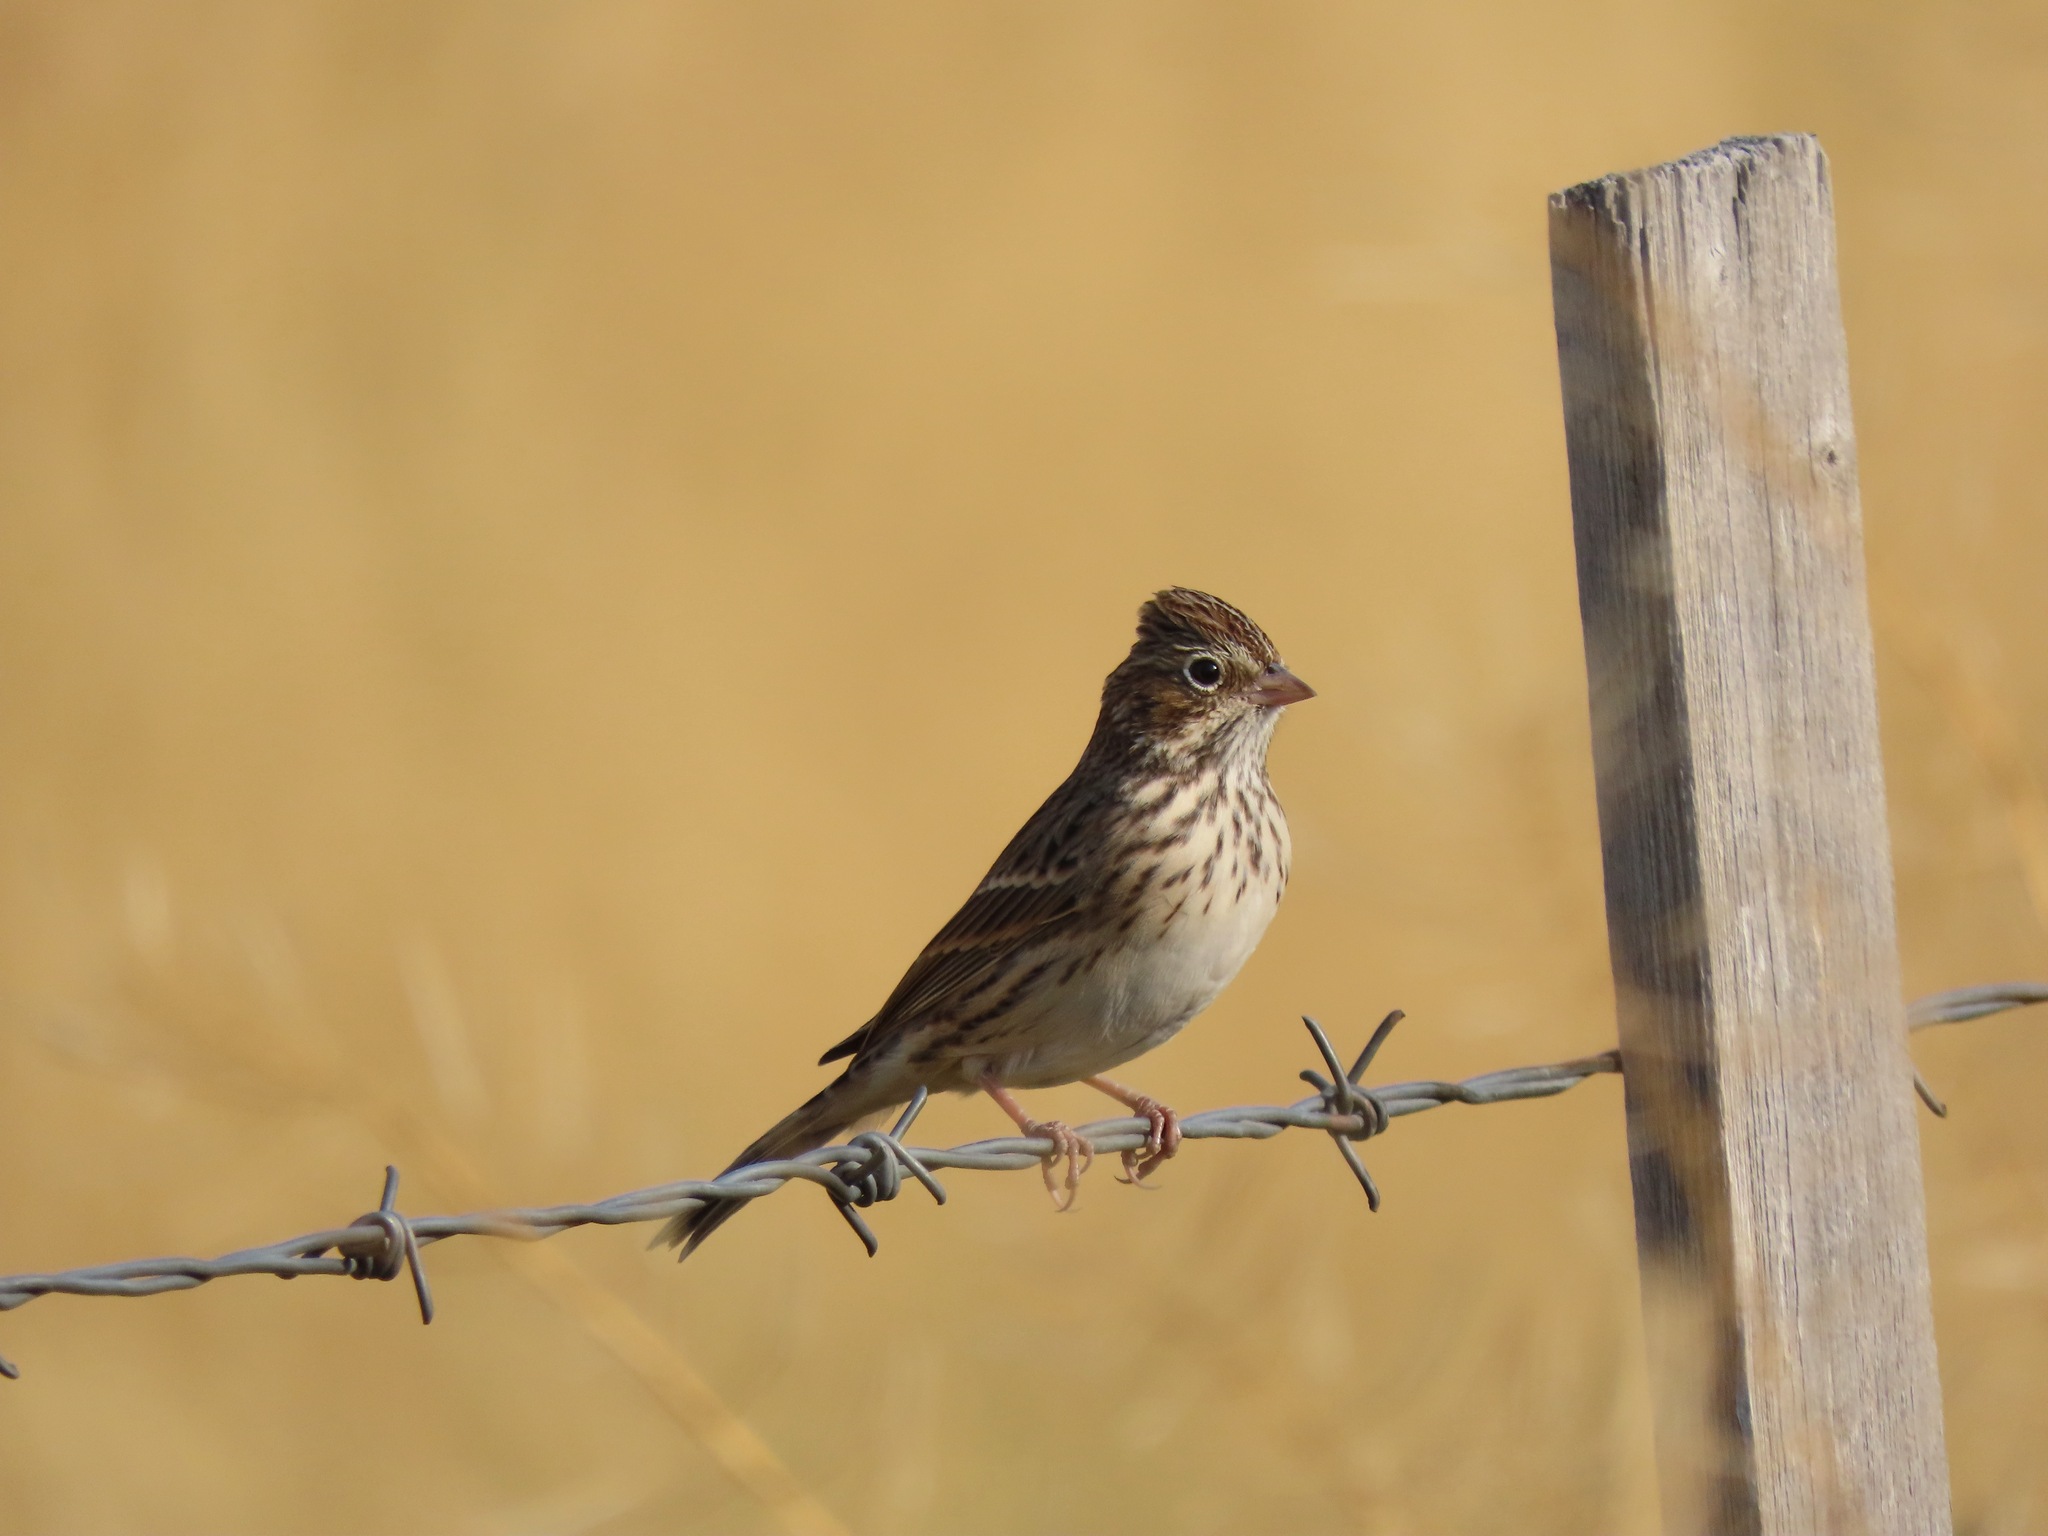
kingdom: Animalia
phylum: Chordata
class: Aves
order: Passeriformes
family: Passerellidae
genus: Pooecetes
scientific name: Pooecetes gramineus
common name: Vesper sparrow
